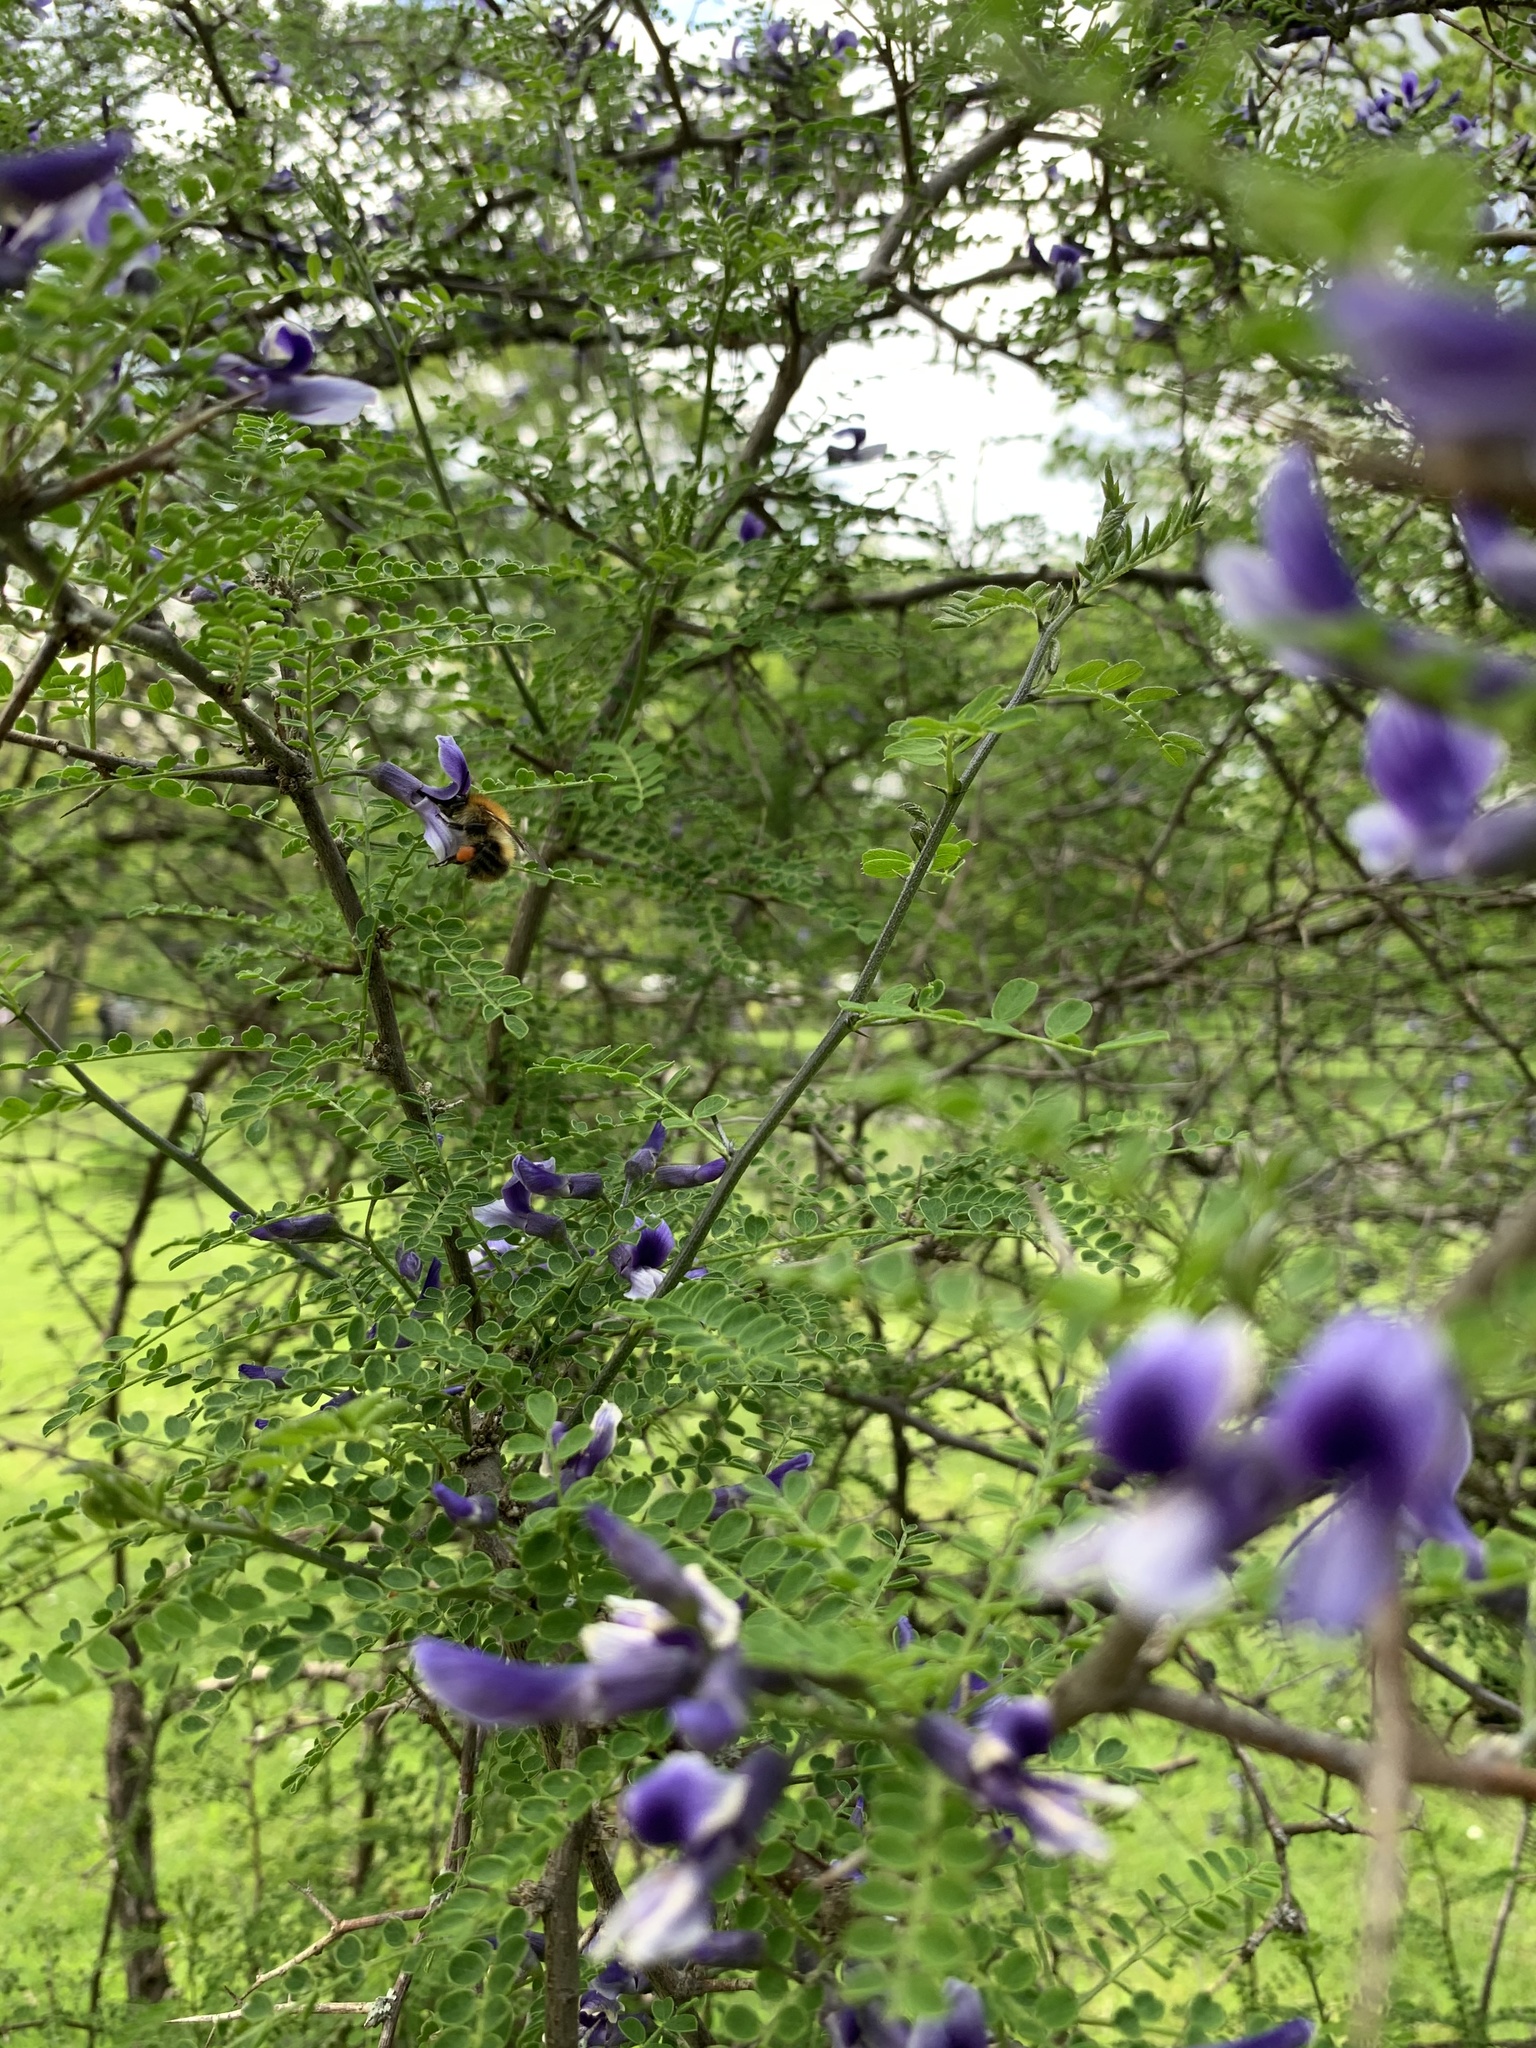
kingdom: Animalia
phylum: Arthropoda
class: Insecta
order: Hymenoptera
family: Apidae
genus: Bombus
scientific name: Bombus pascuorum
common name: Common carder bee
